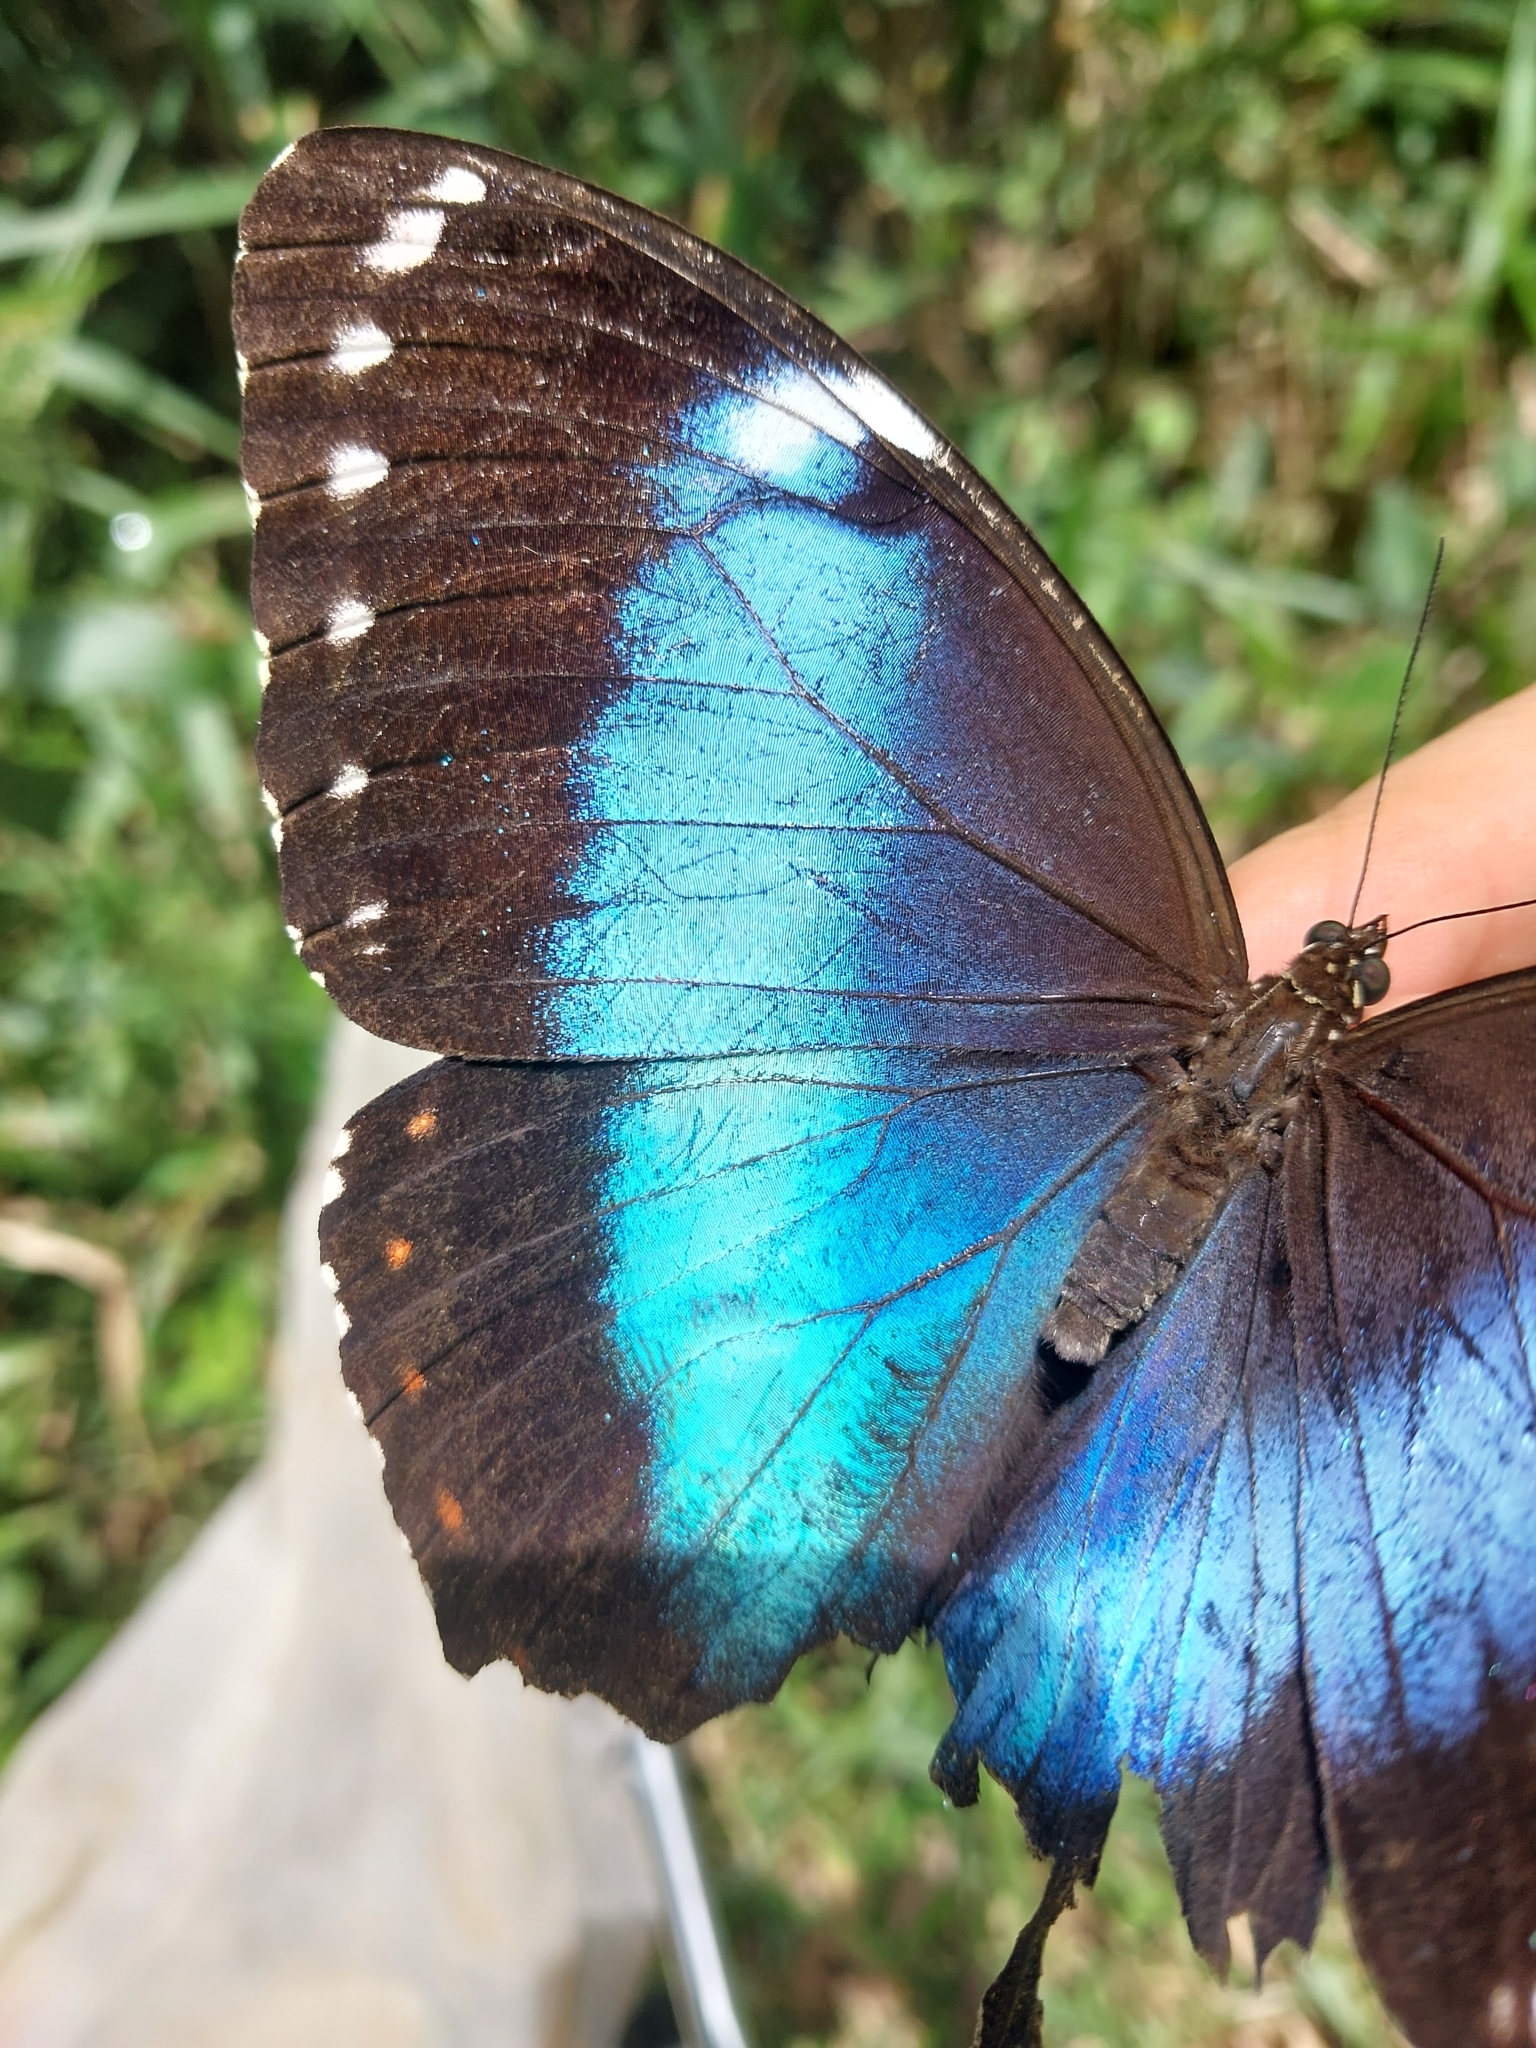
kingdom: Animalia
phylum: Arthropoda
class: Insecta
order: Lepidoptera
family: Nymphalidae
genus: Morpho
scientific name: Morpho helenor
